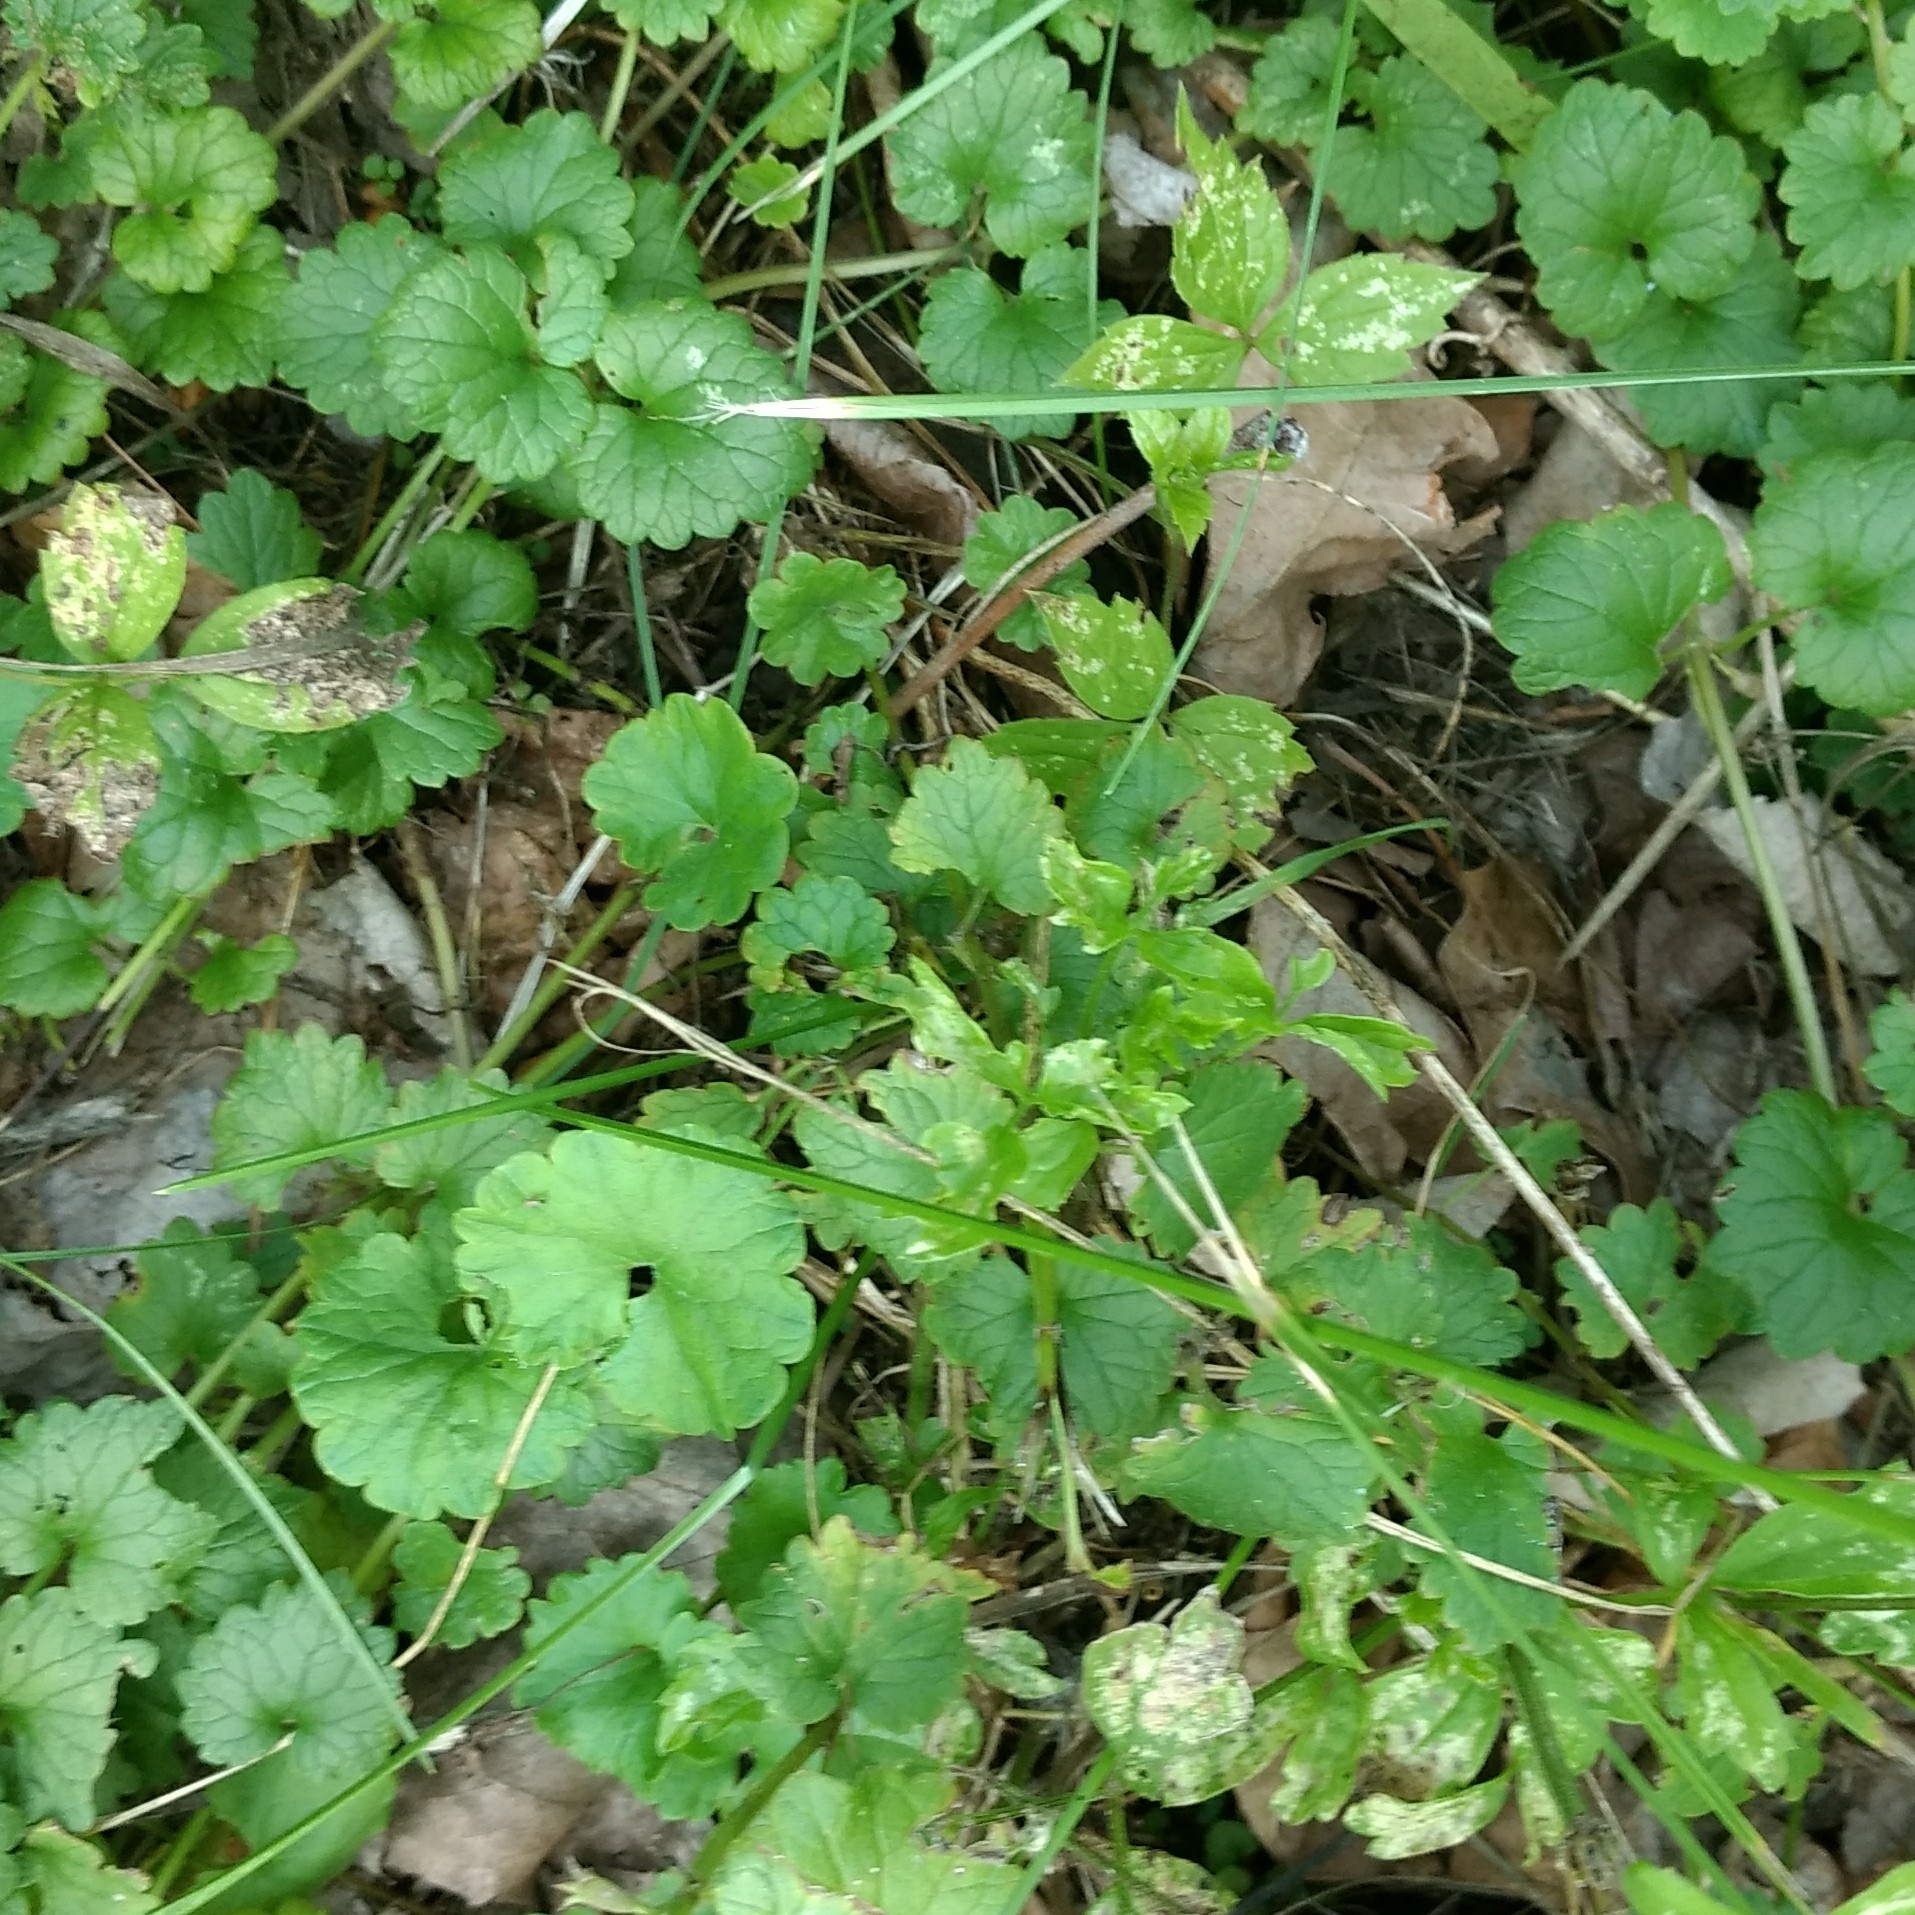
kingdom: Plantae
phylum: Tracheophyta
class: Magnoliopsida
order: Lamiales
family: Lamiaceae
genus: Glechoma
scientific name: Glechoma hederacea
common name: Ground ivy
